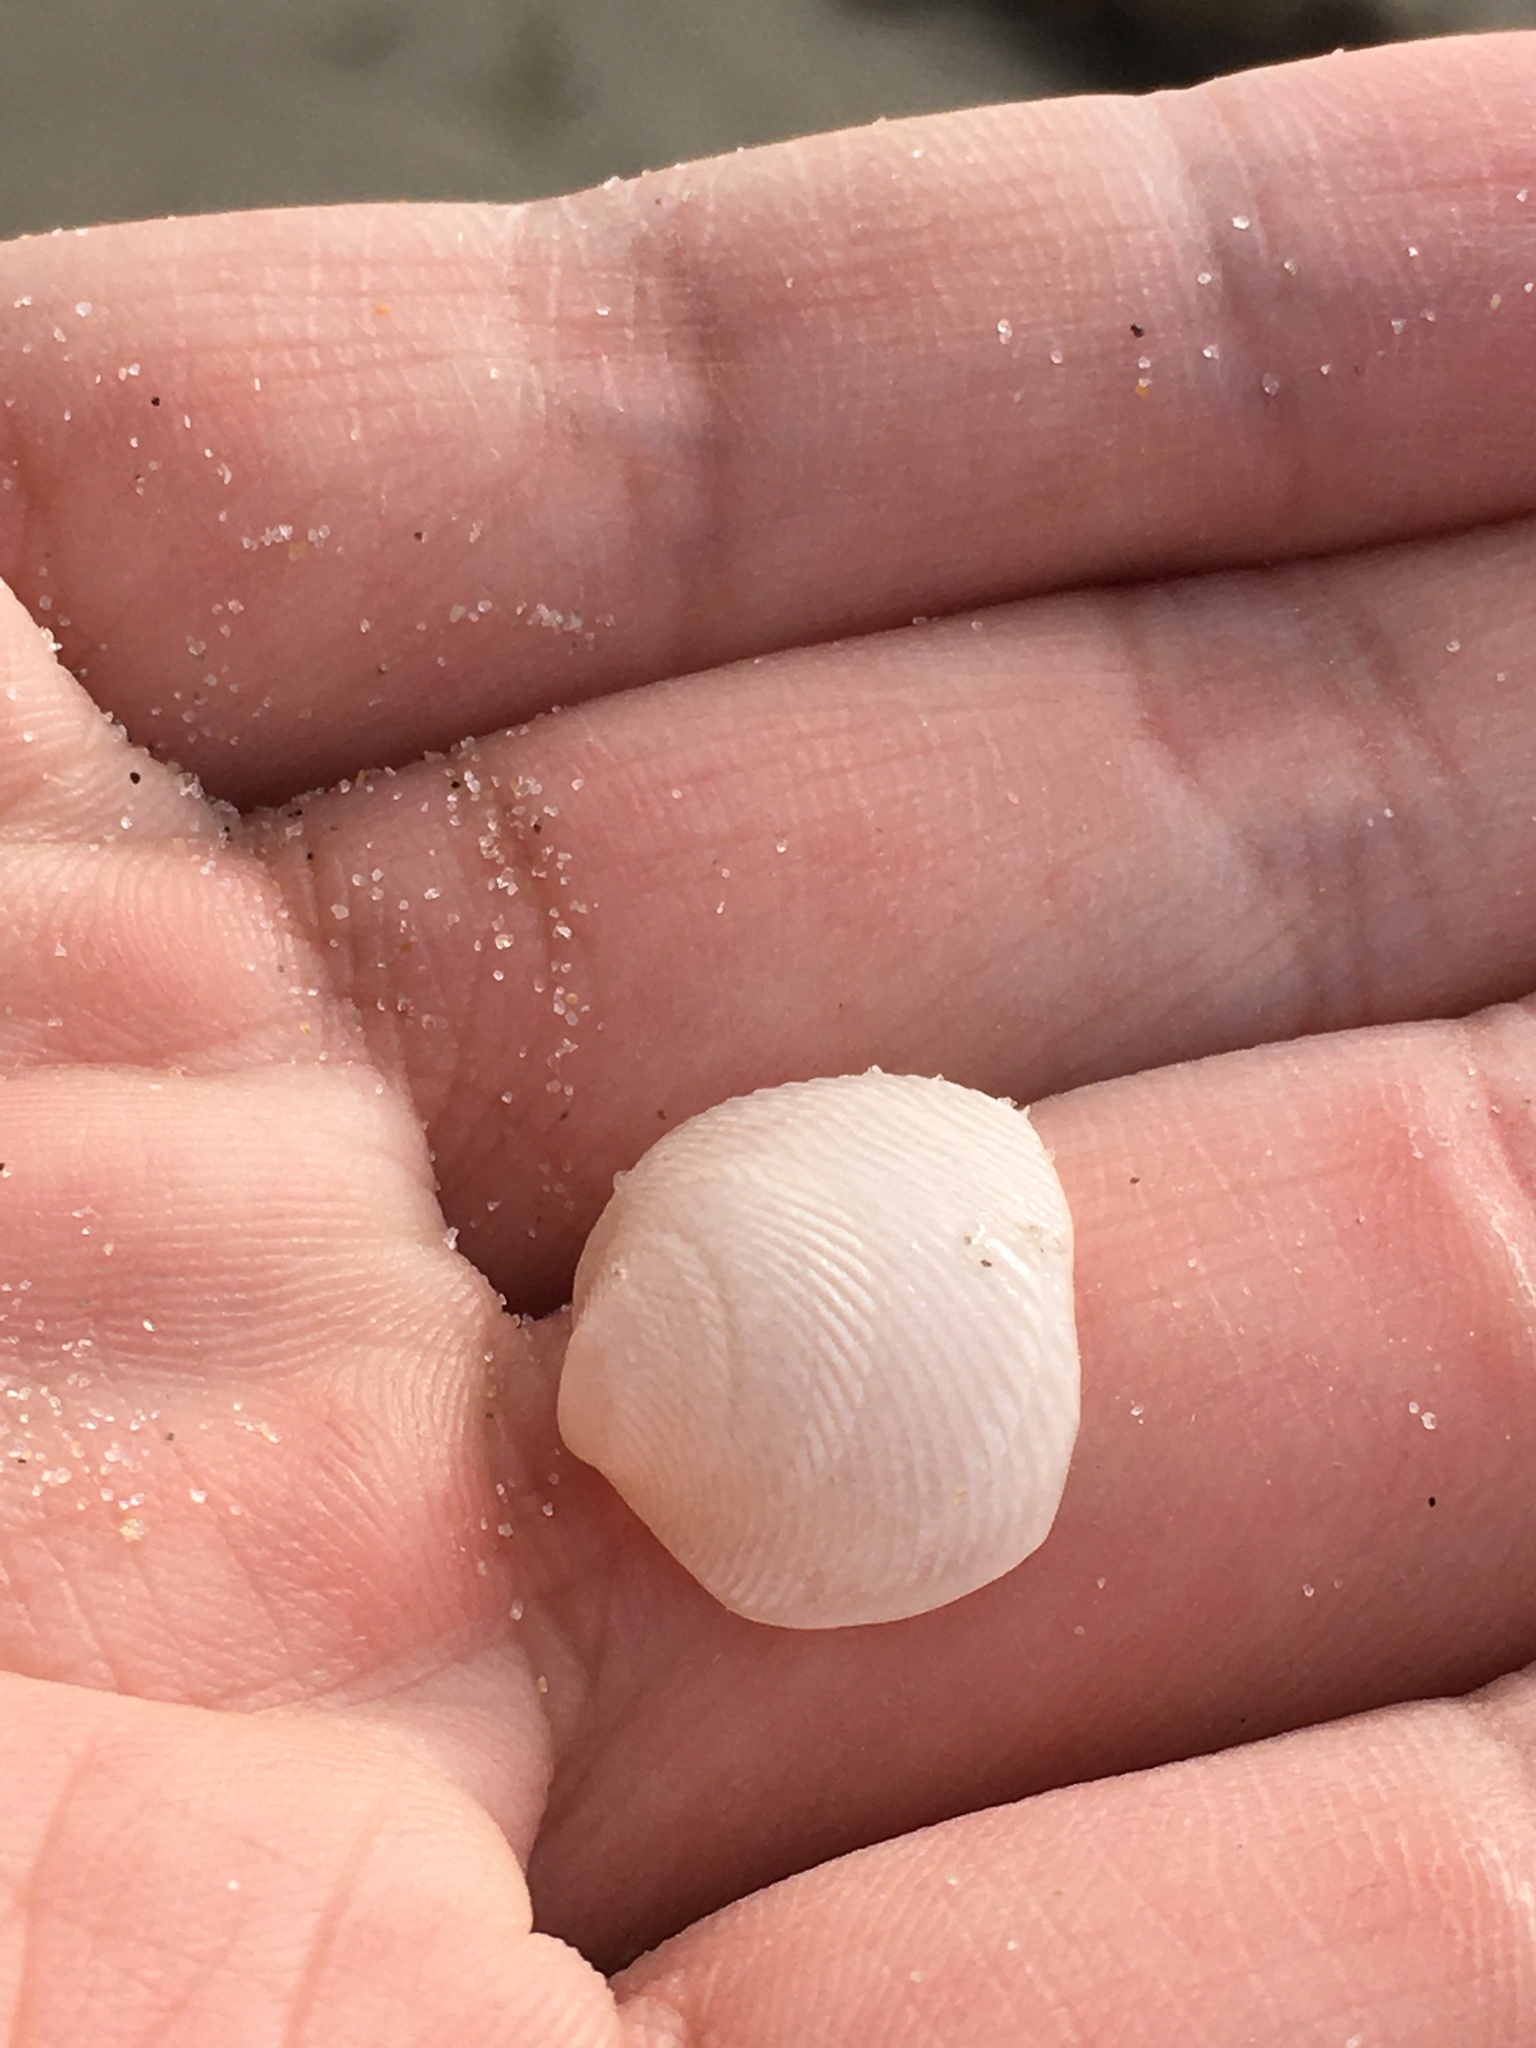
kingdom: Animalia
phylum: Mollusca
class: Bivalvia
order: Lucinida
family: Lucinidae
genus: Divalinga
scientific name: Divalinga quadrisulcata
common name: Cross-hatched lucine
